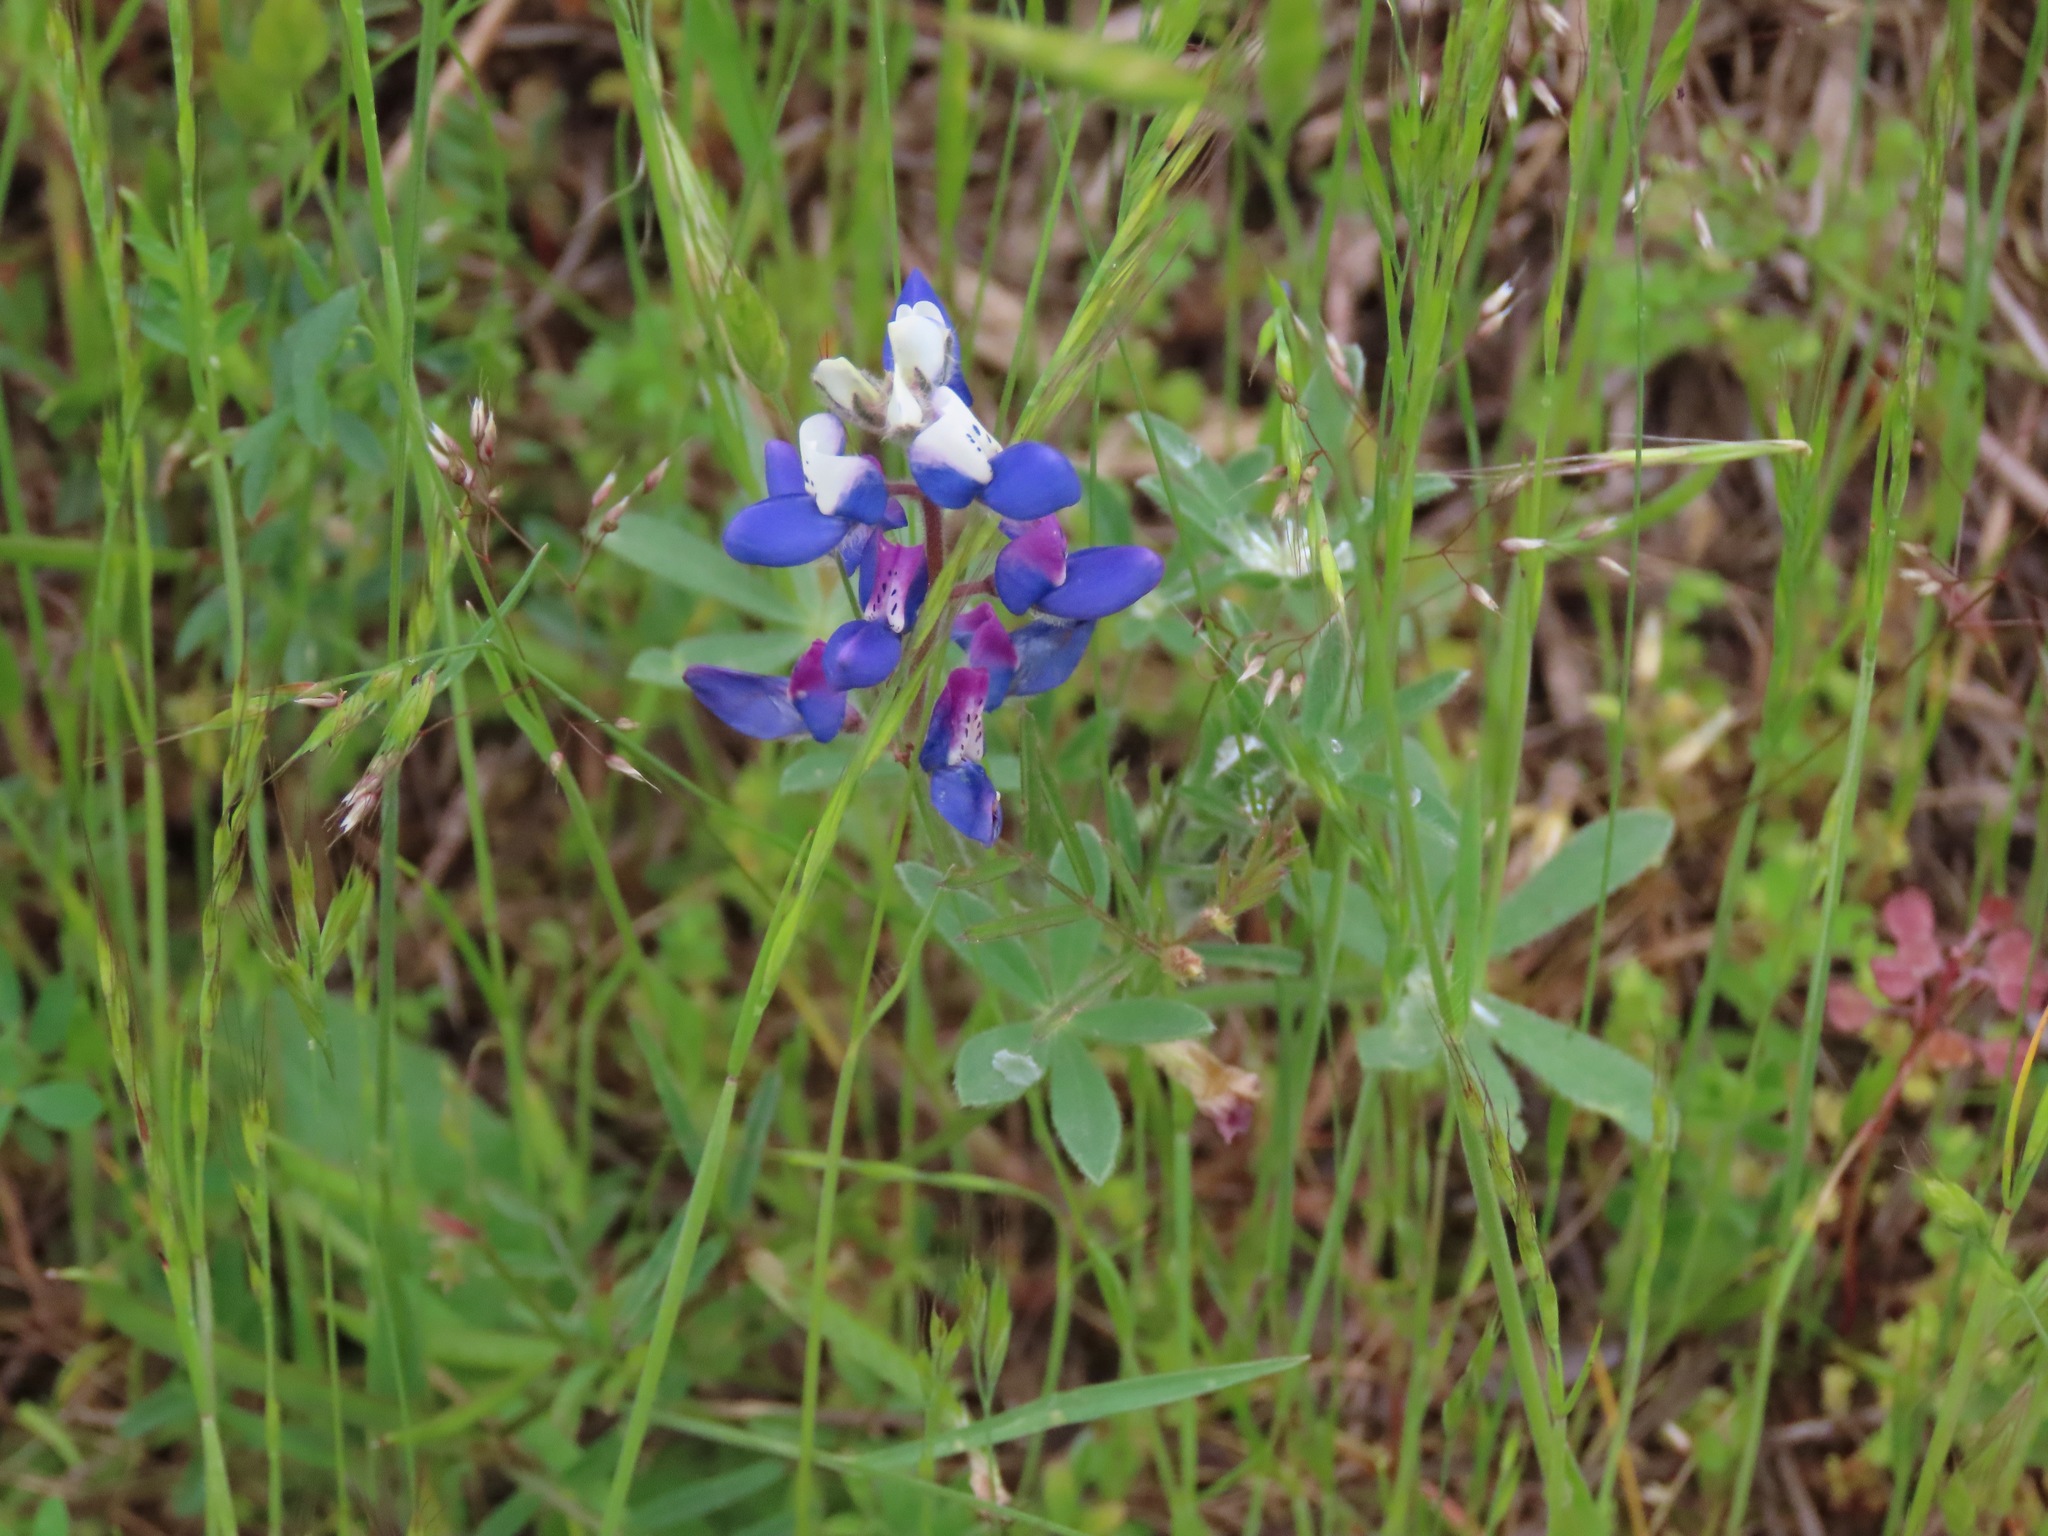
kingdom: Plantae
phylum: Tracheophyta
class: Magnoliopsida
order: Fabales
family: Fabaceae
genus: Lupinus
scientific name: Lupinus bicolor
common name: Miniature lupine
